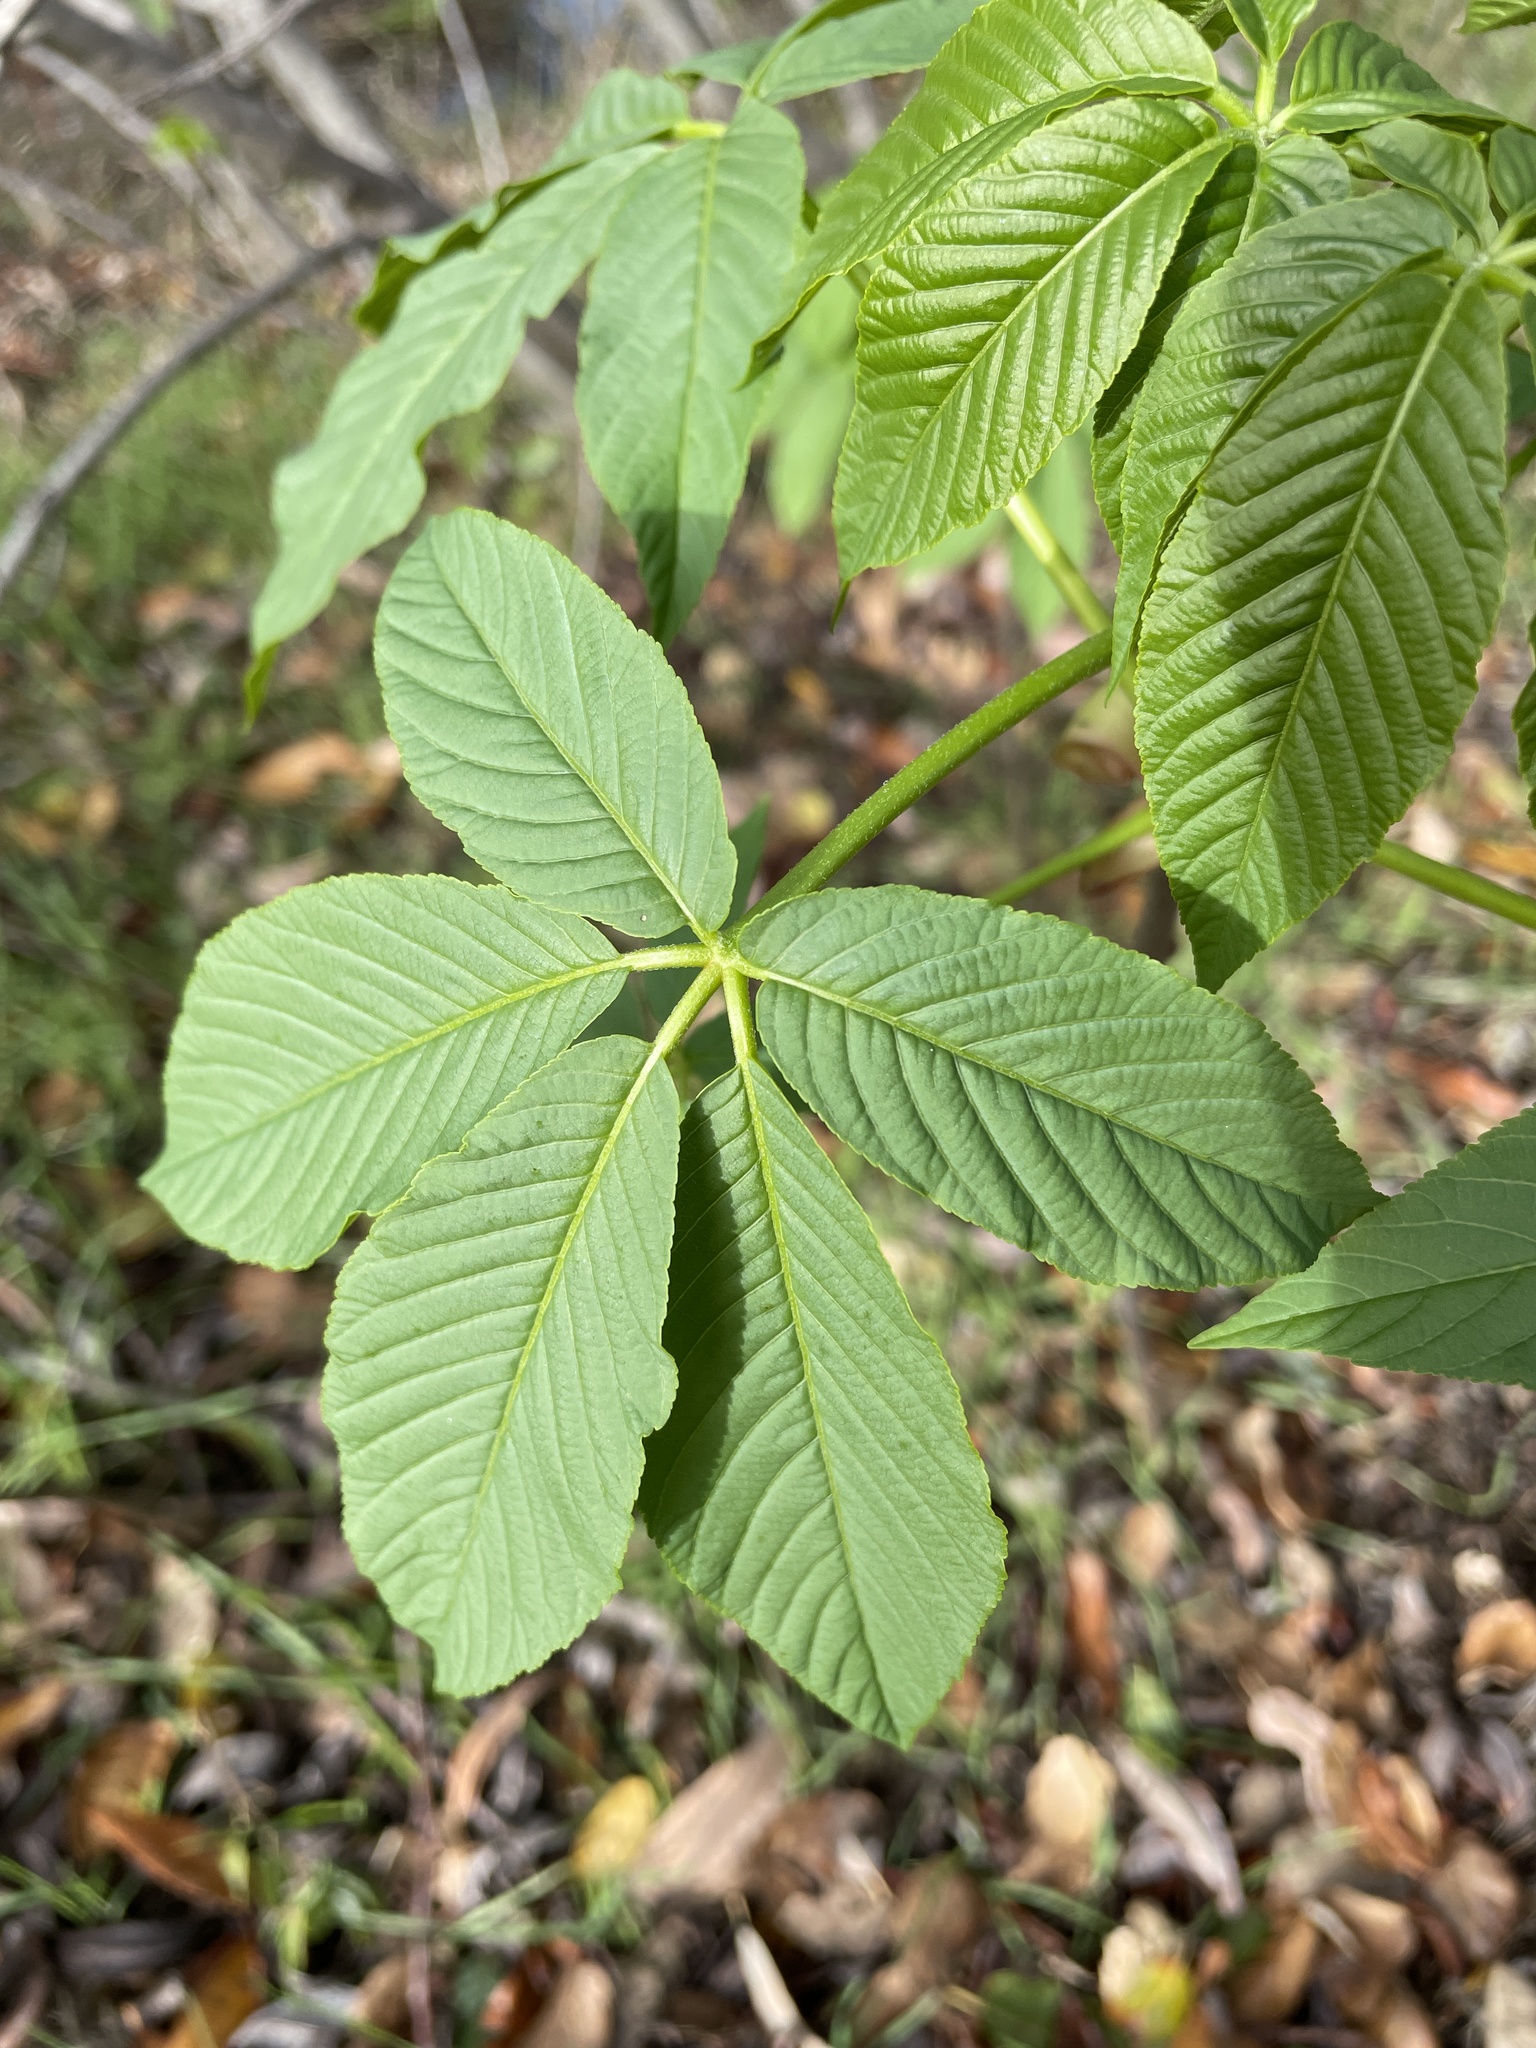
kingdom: Plantae
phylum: Tracheophyta
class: Magnoliopsida
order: Sapindales
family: Sapindaceae
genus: Aesculus
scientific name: Aesculus californica
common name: California buckeye
